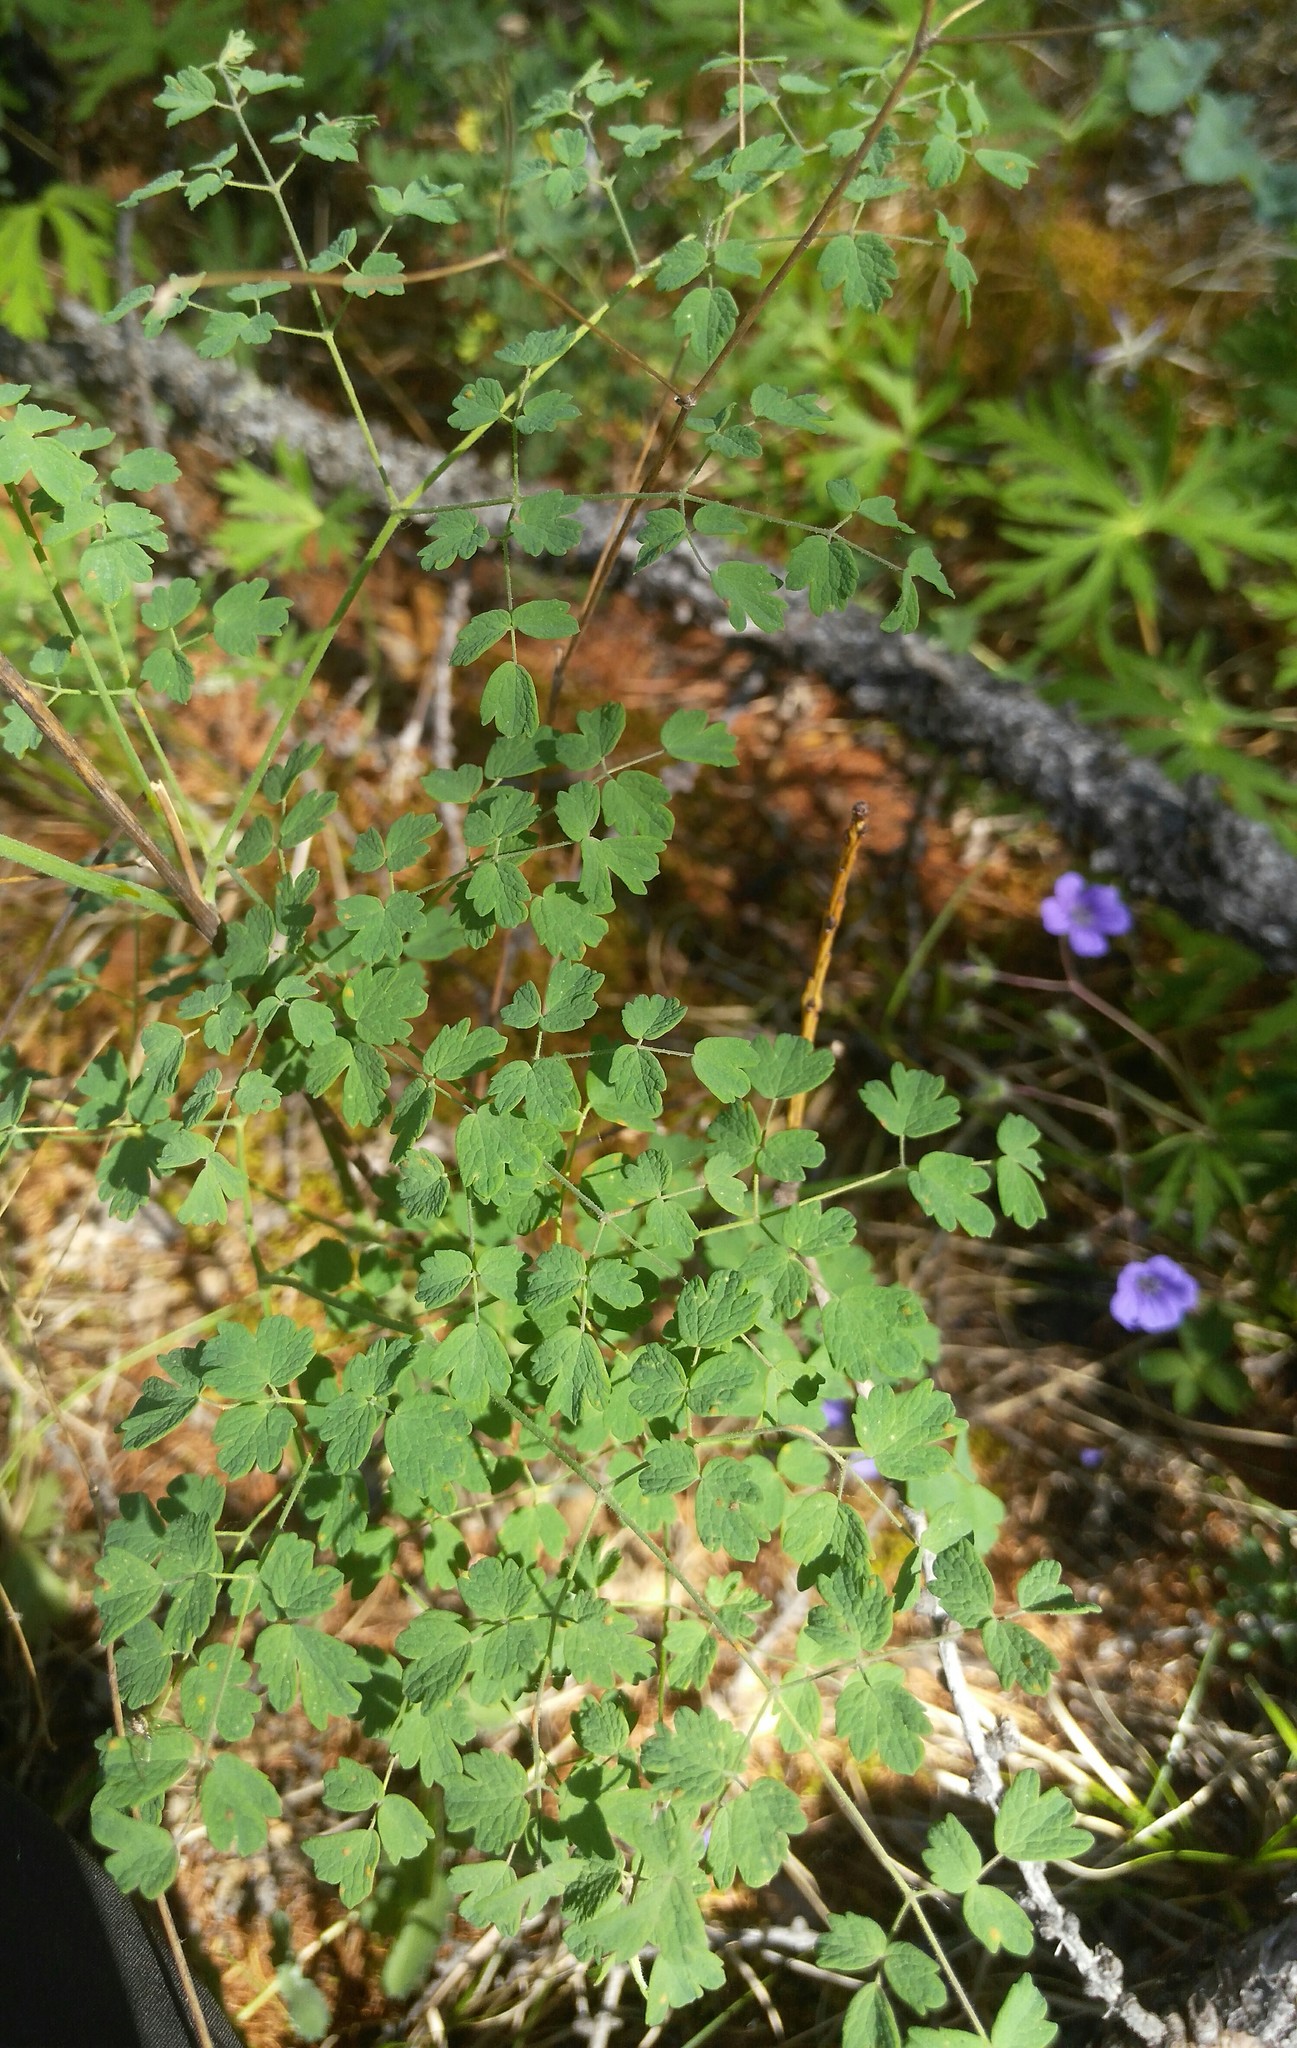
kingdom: Plantae
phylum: Tracheophyta
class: Magnoliopsida
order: Ranunculales
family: Ranunculaceae
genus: Thalictrum
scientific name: Thalictrum foetidum
